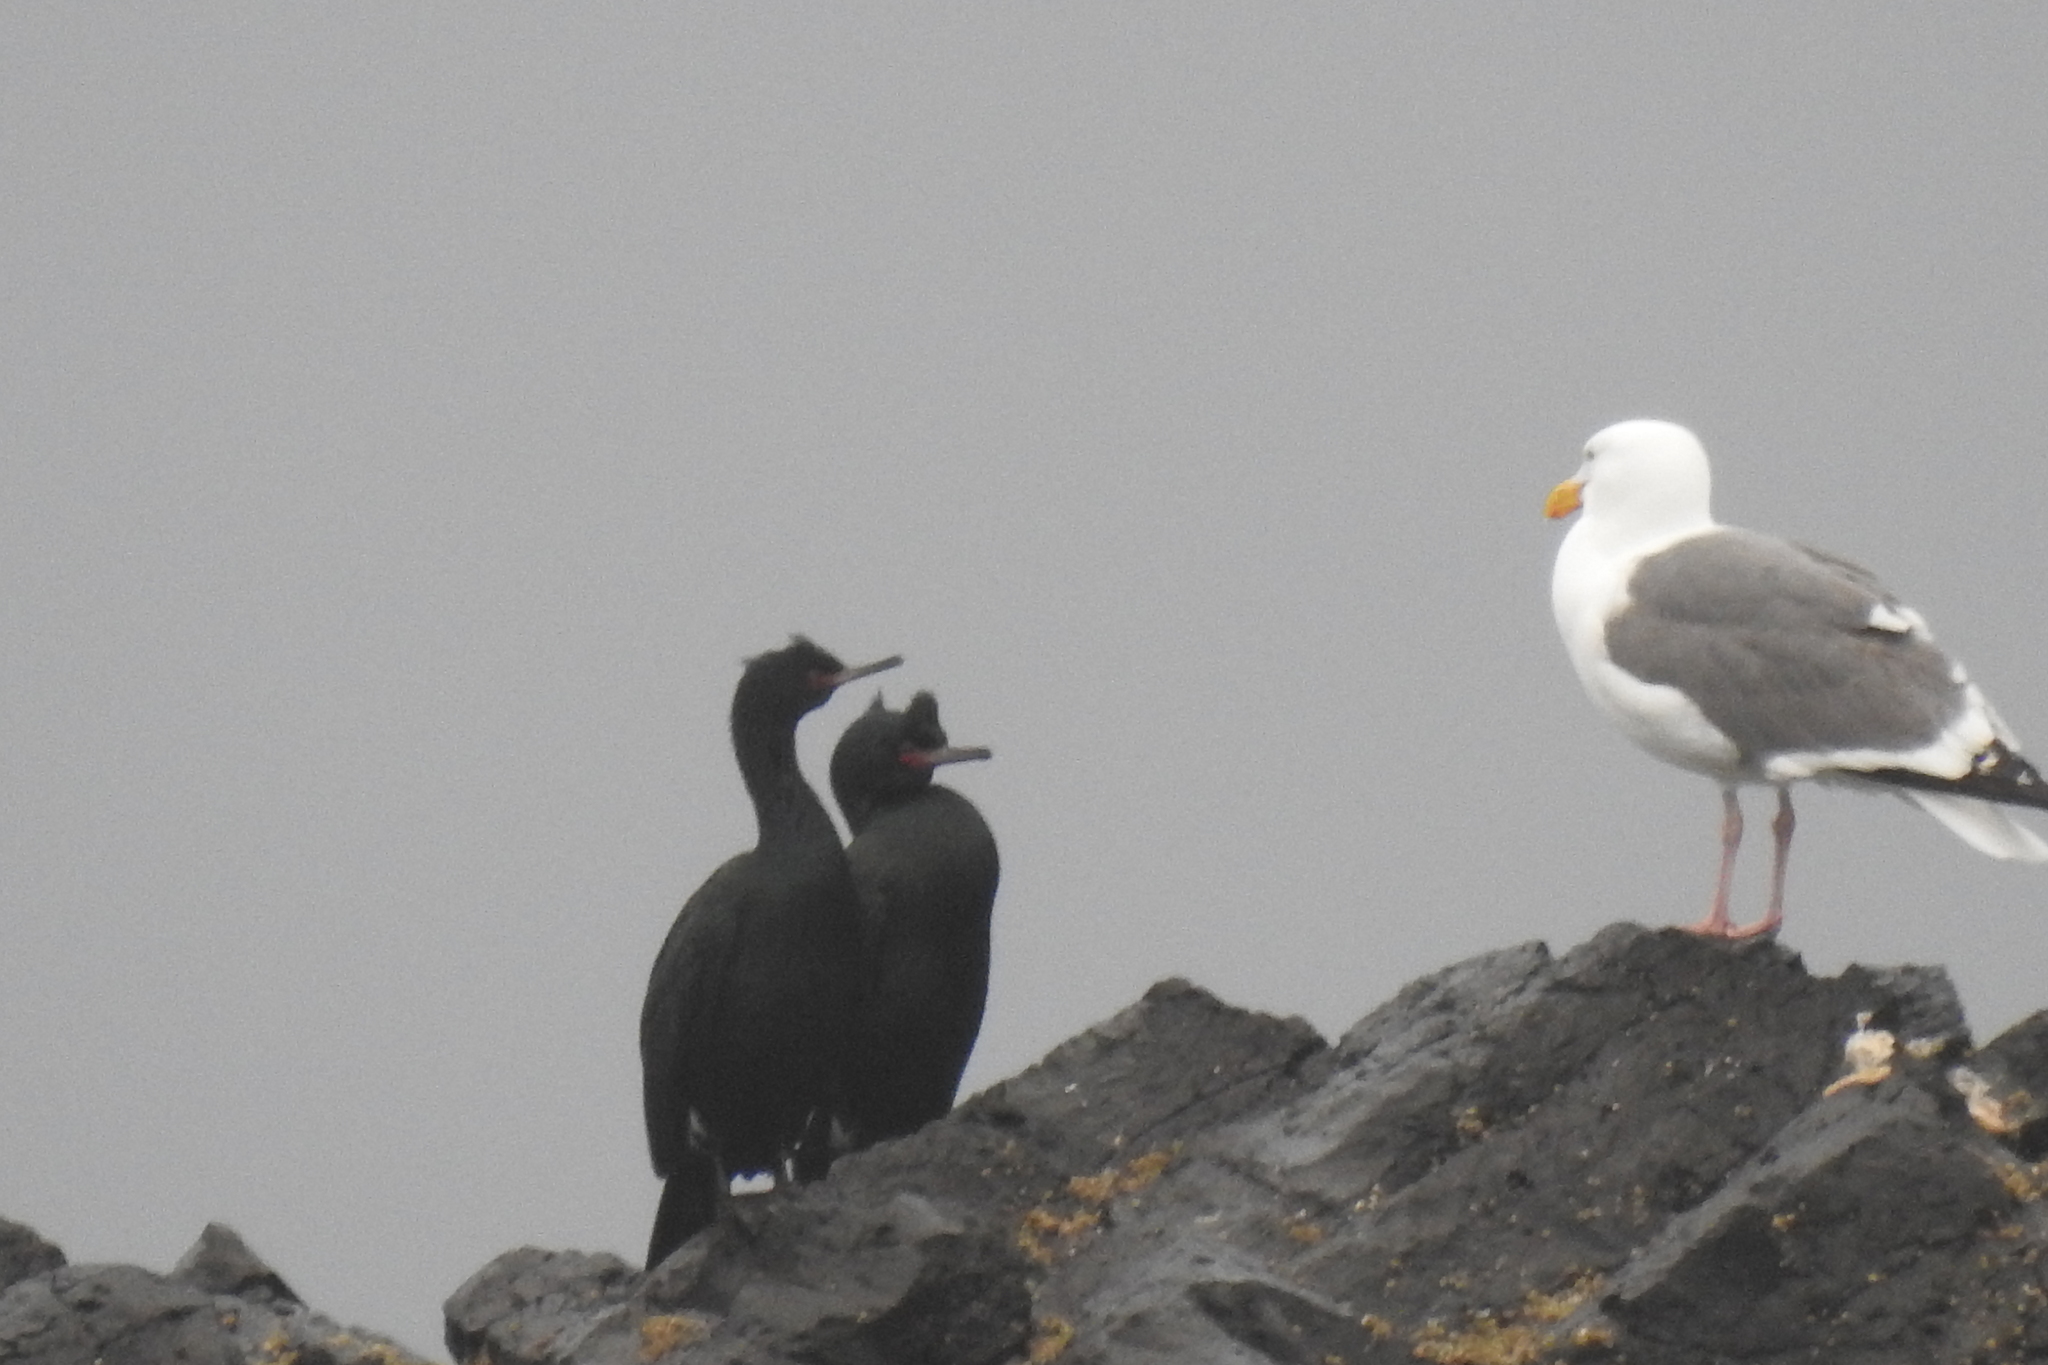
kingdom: Animalia
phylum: Chordata
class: Aves
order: Suliformes
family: Phalacrocoracidae
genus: Phalacrocorax
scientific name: Phalacrocorax pelagicus
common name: Pelagic cormorant
